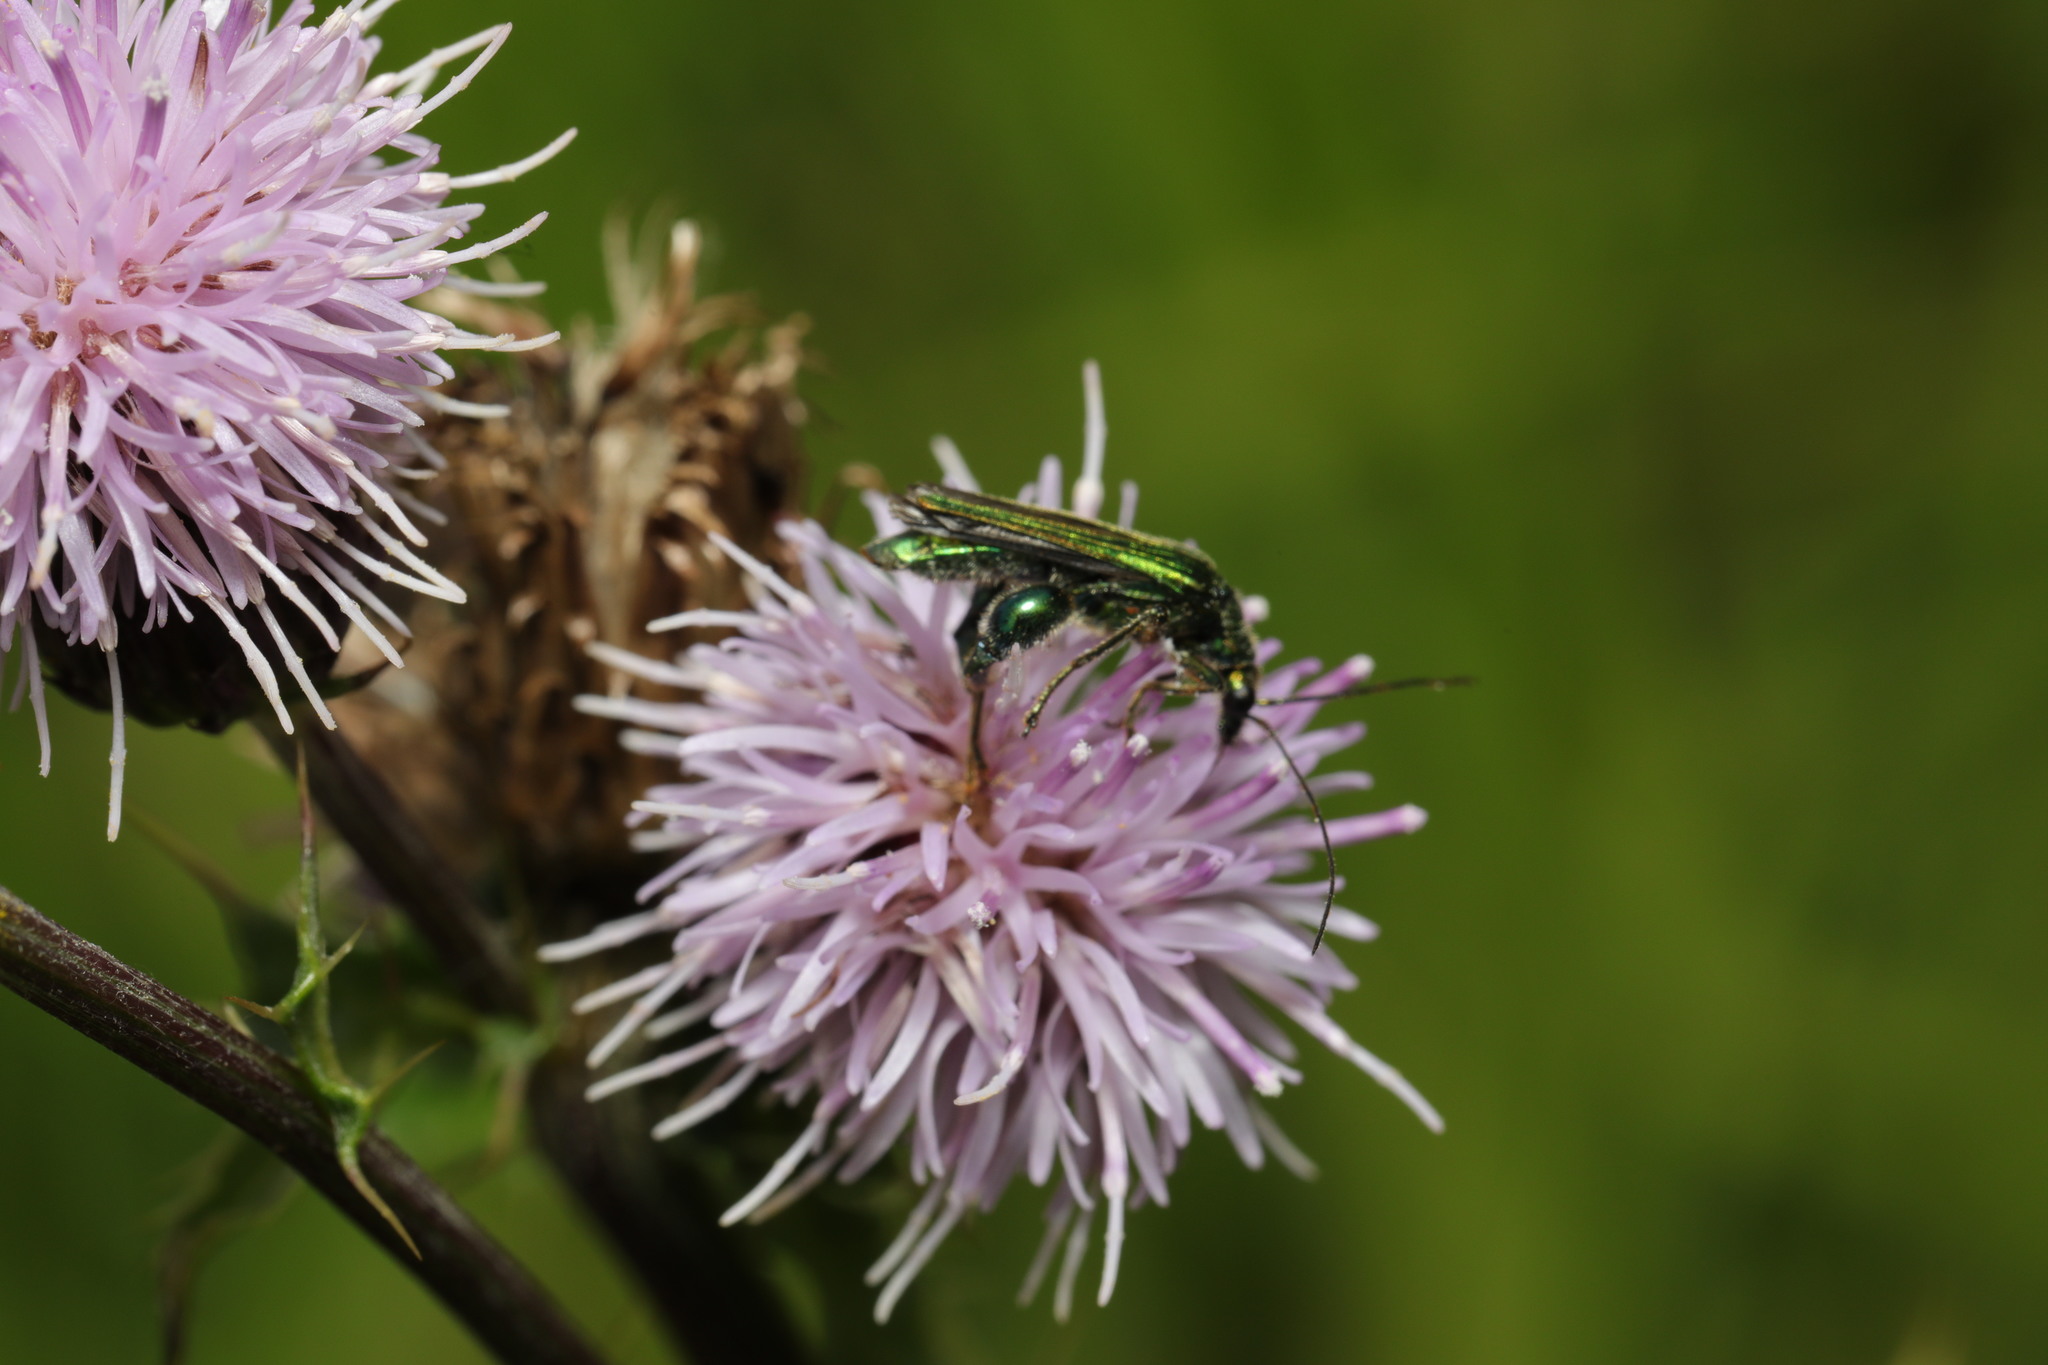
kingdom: Animalia
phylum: Arthropoda
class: Insecta
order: Coleoptera
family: Oedemeridae
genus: Oedemera
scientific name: Oedemera nobilis
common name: Swollen-thighed beetle
